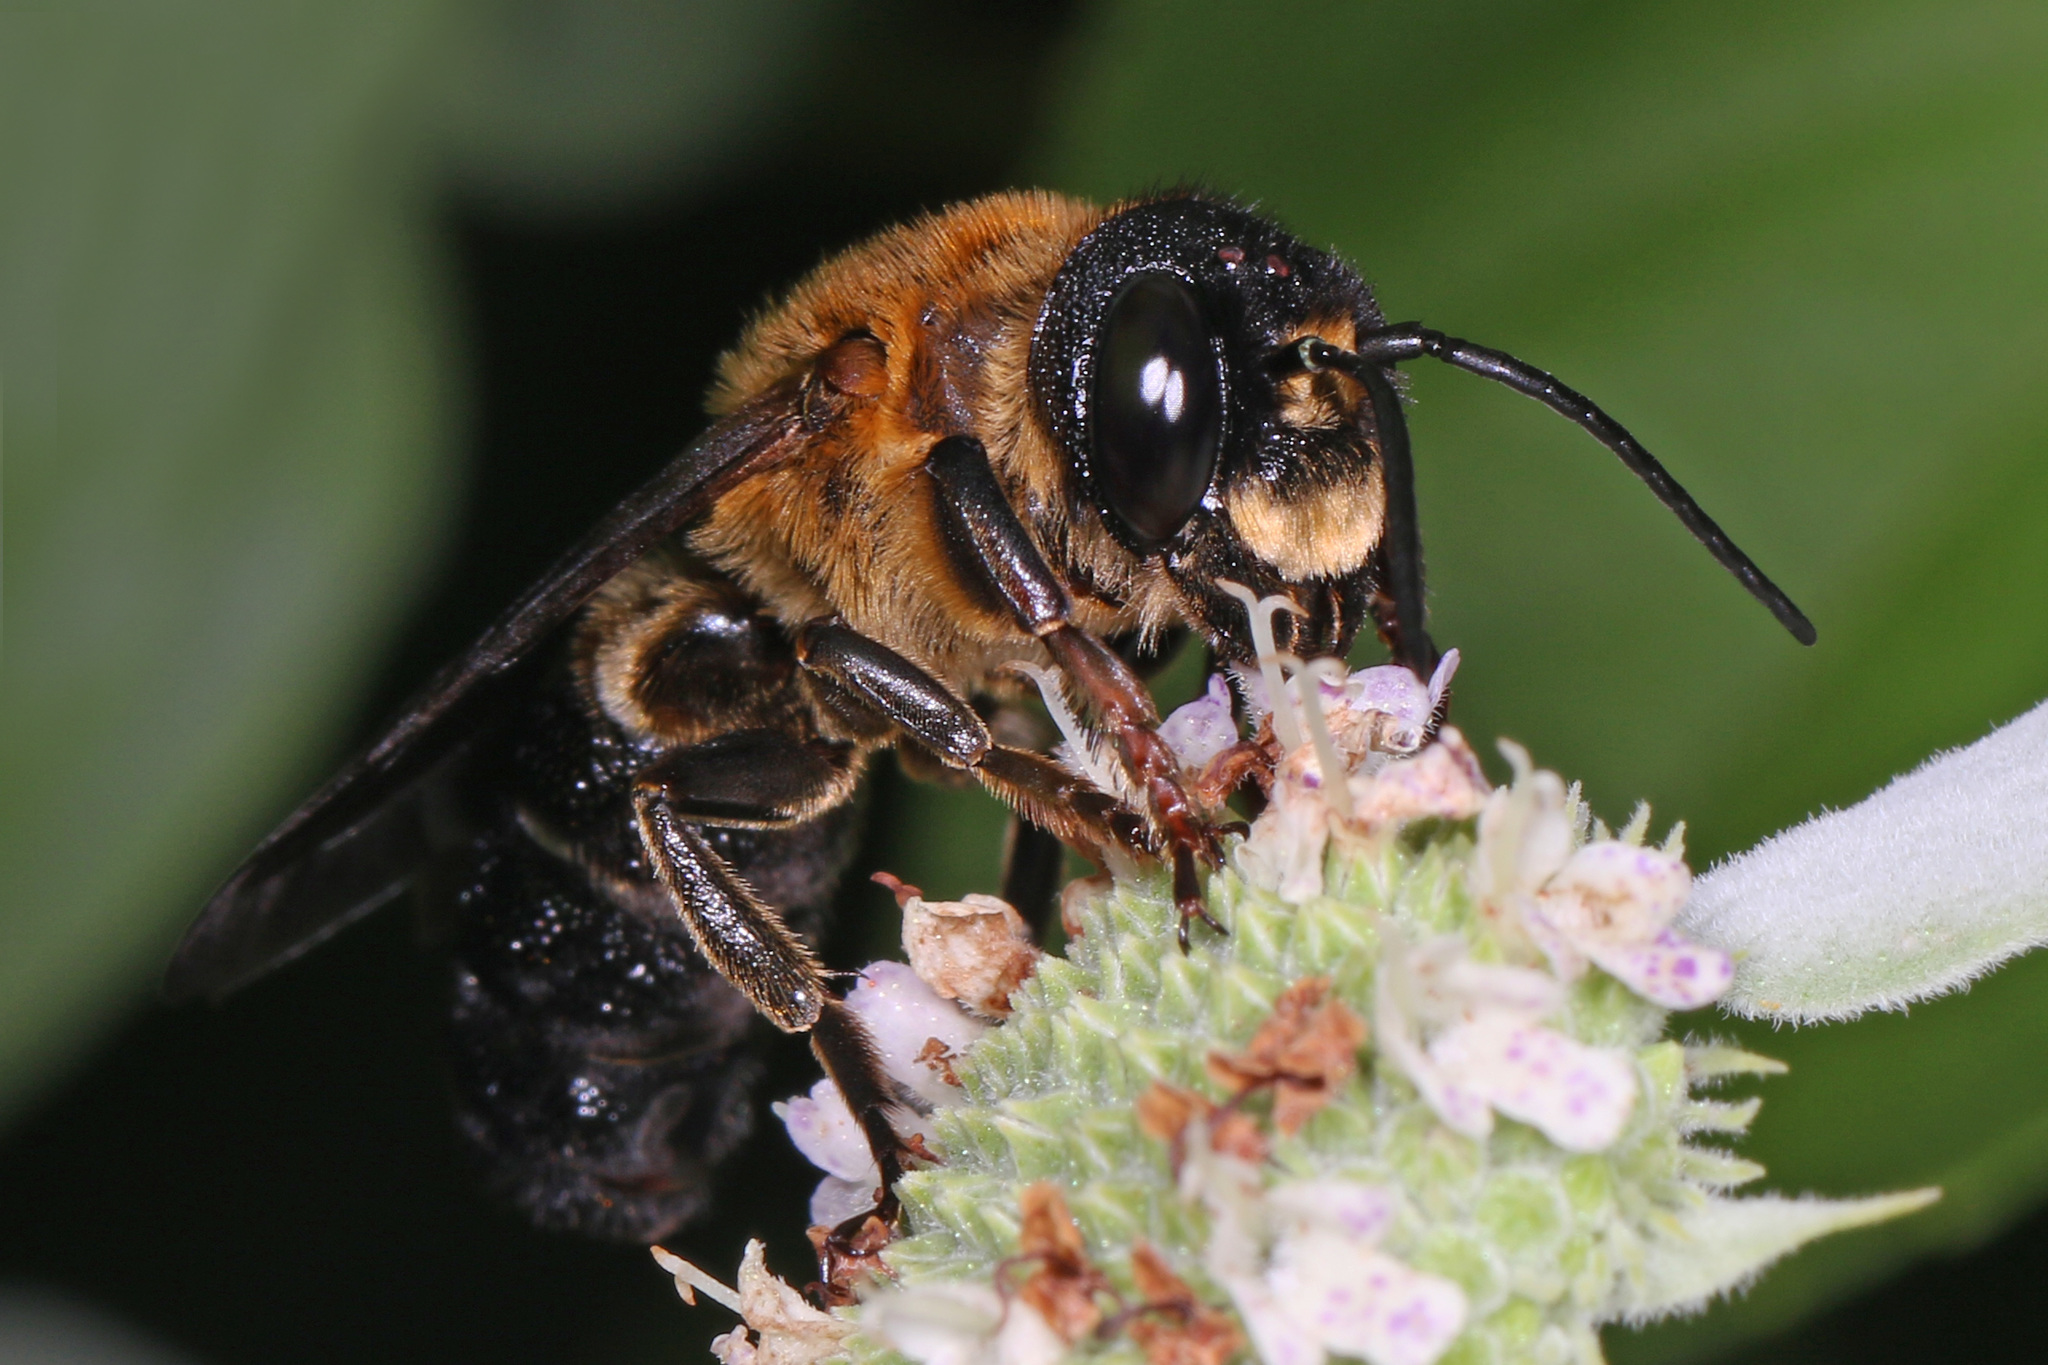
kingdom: Animalia
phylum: Arthropoda
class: Insecta
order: Hymenoptera
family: Megachilidae
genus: Megachile
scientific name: Megachile sculpturalis
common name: Sculptured resin bee
